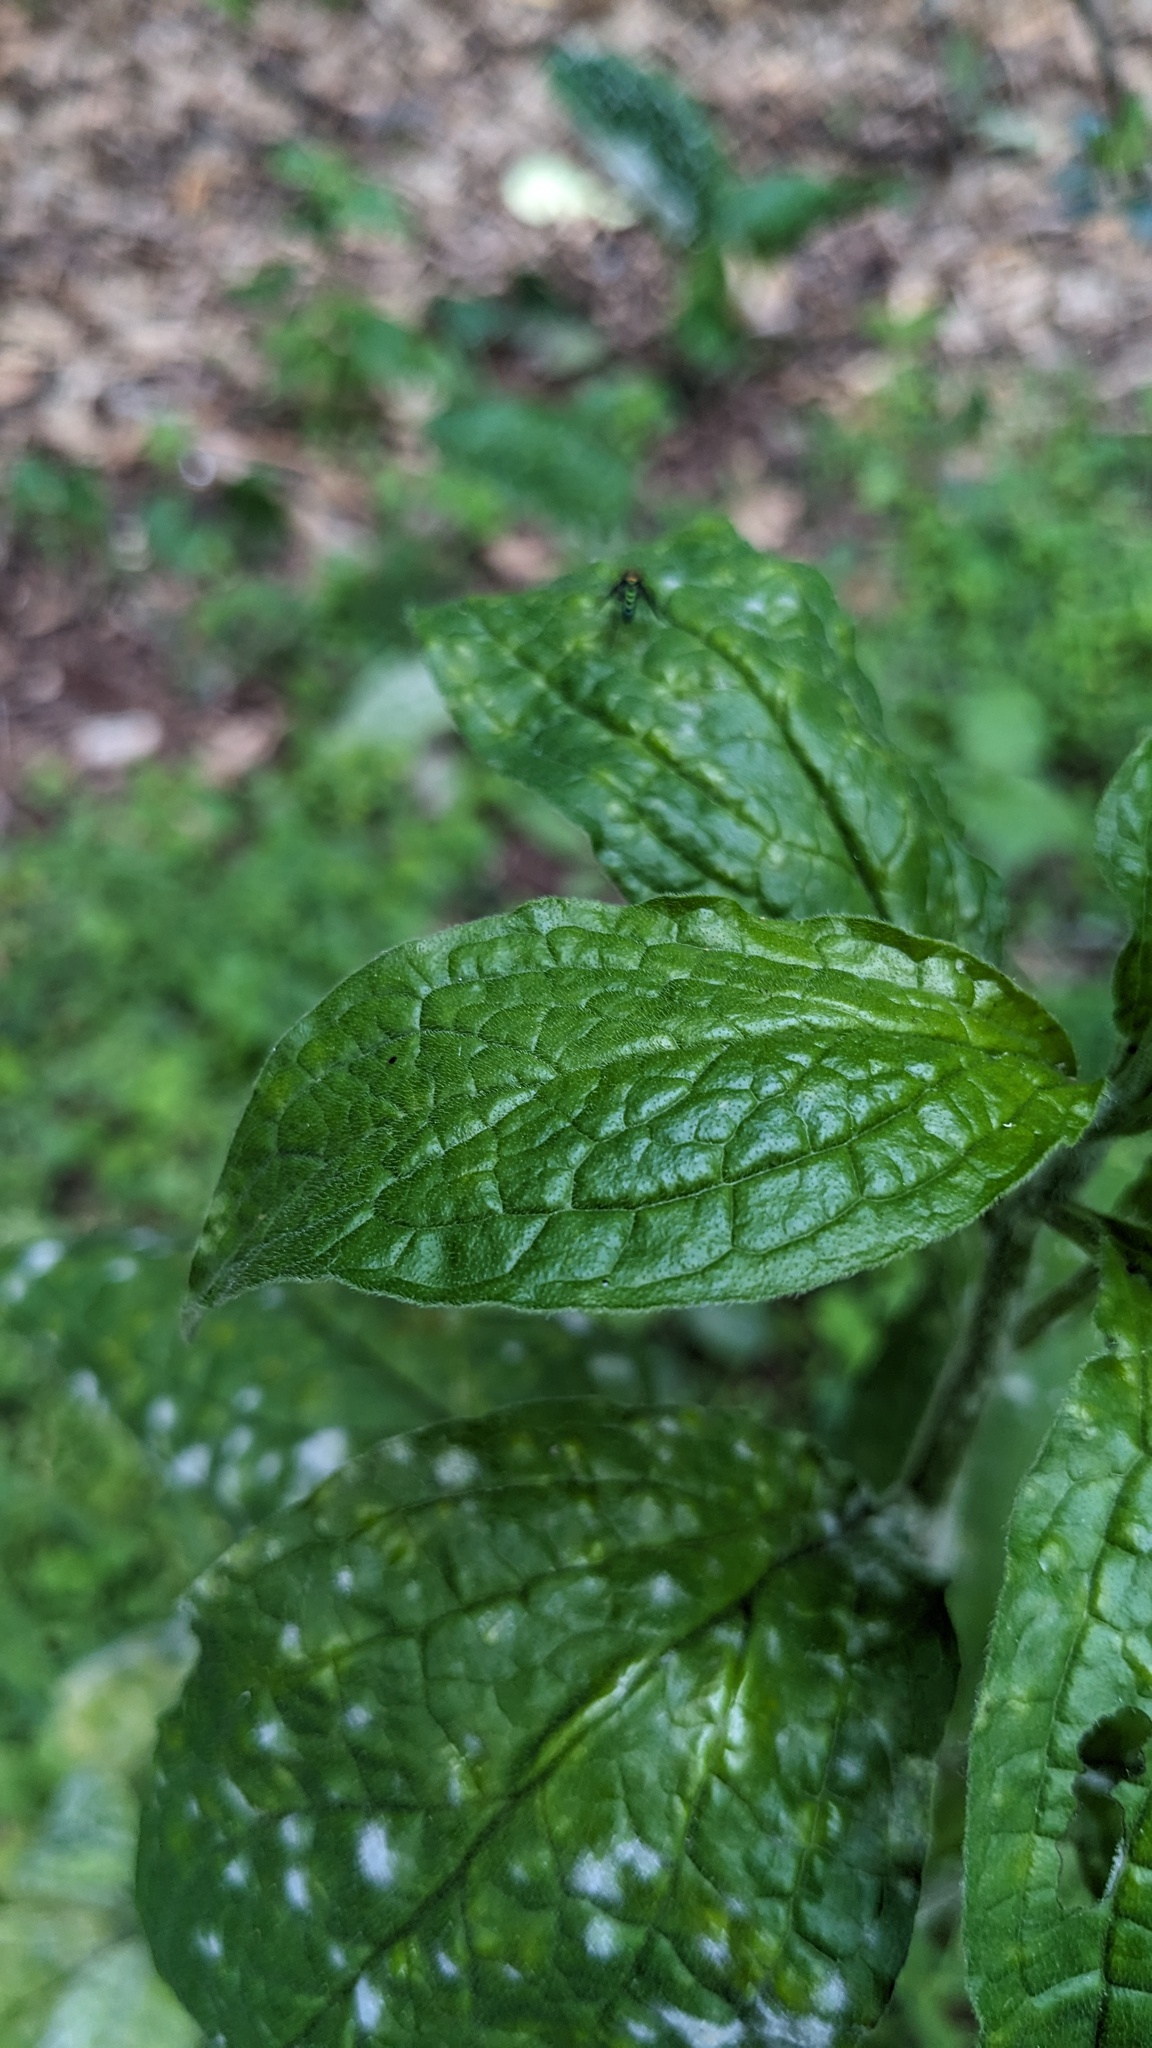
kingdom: Plantae
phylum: Tracheophyta
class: Magnoliopsida
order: Boraginales
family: Boraginaceae
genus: Hackelia
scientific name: Hackelia virginiana
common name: Beggar's-lice
